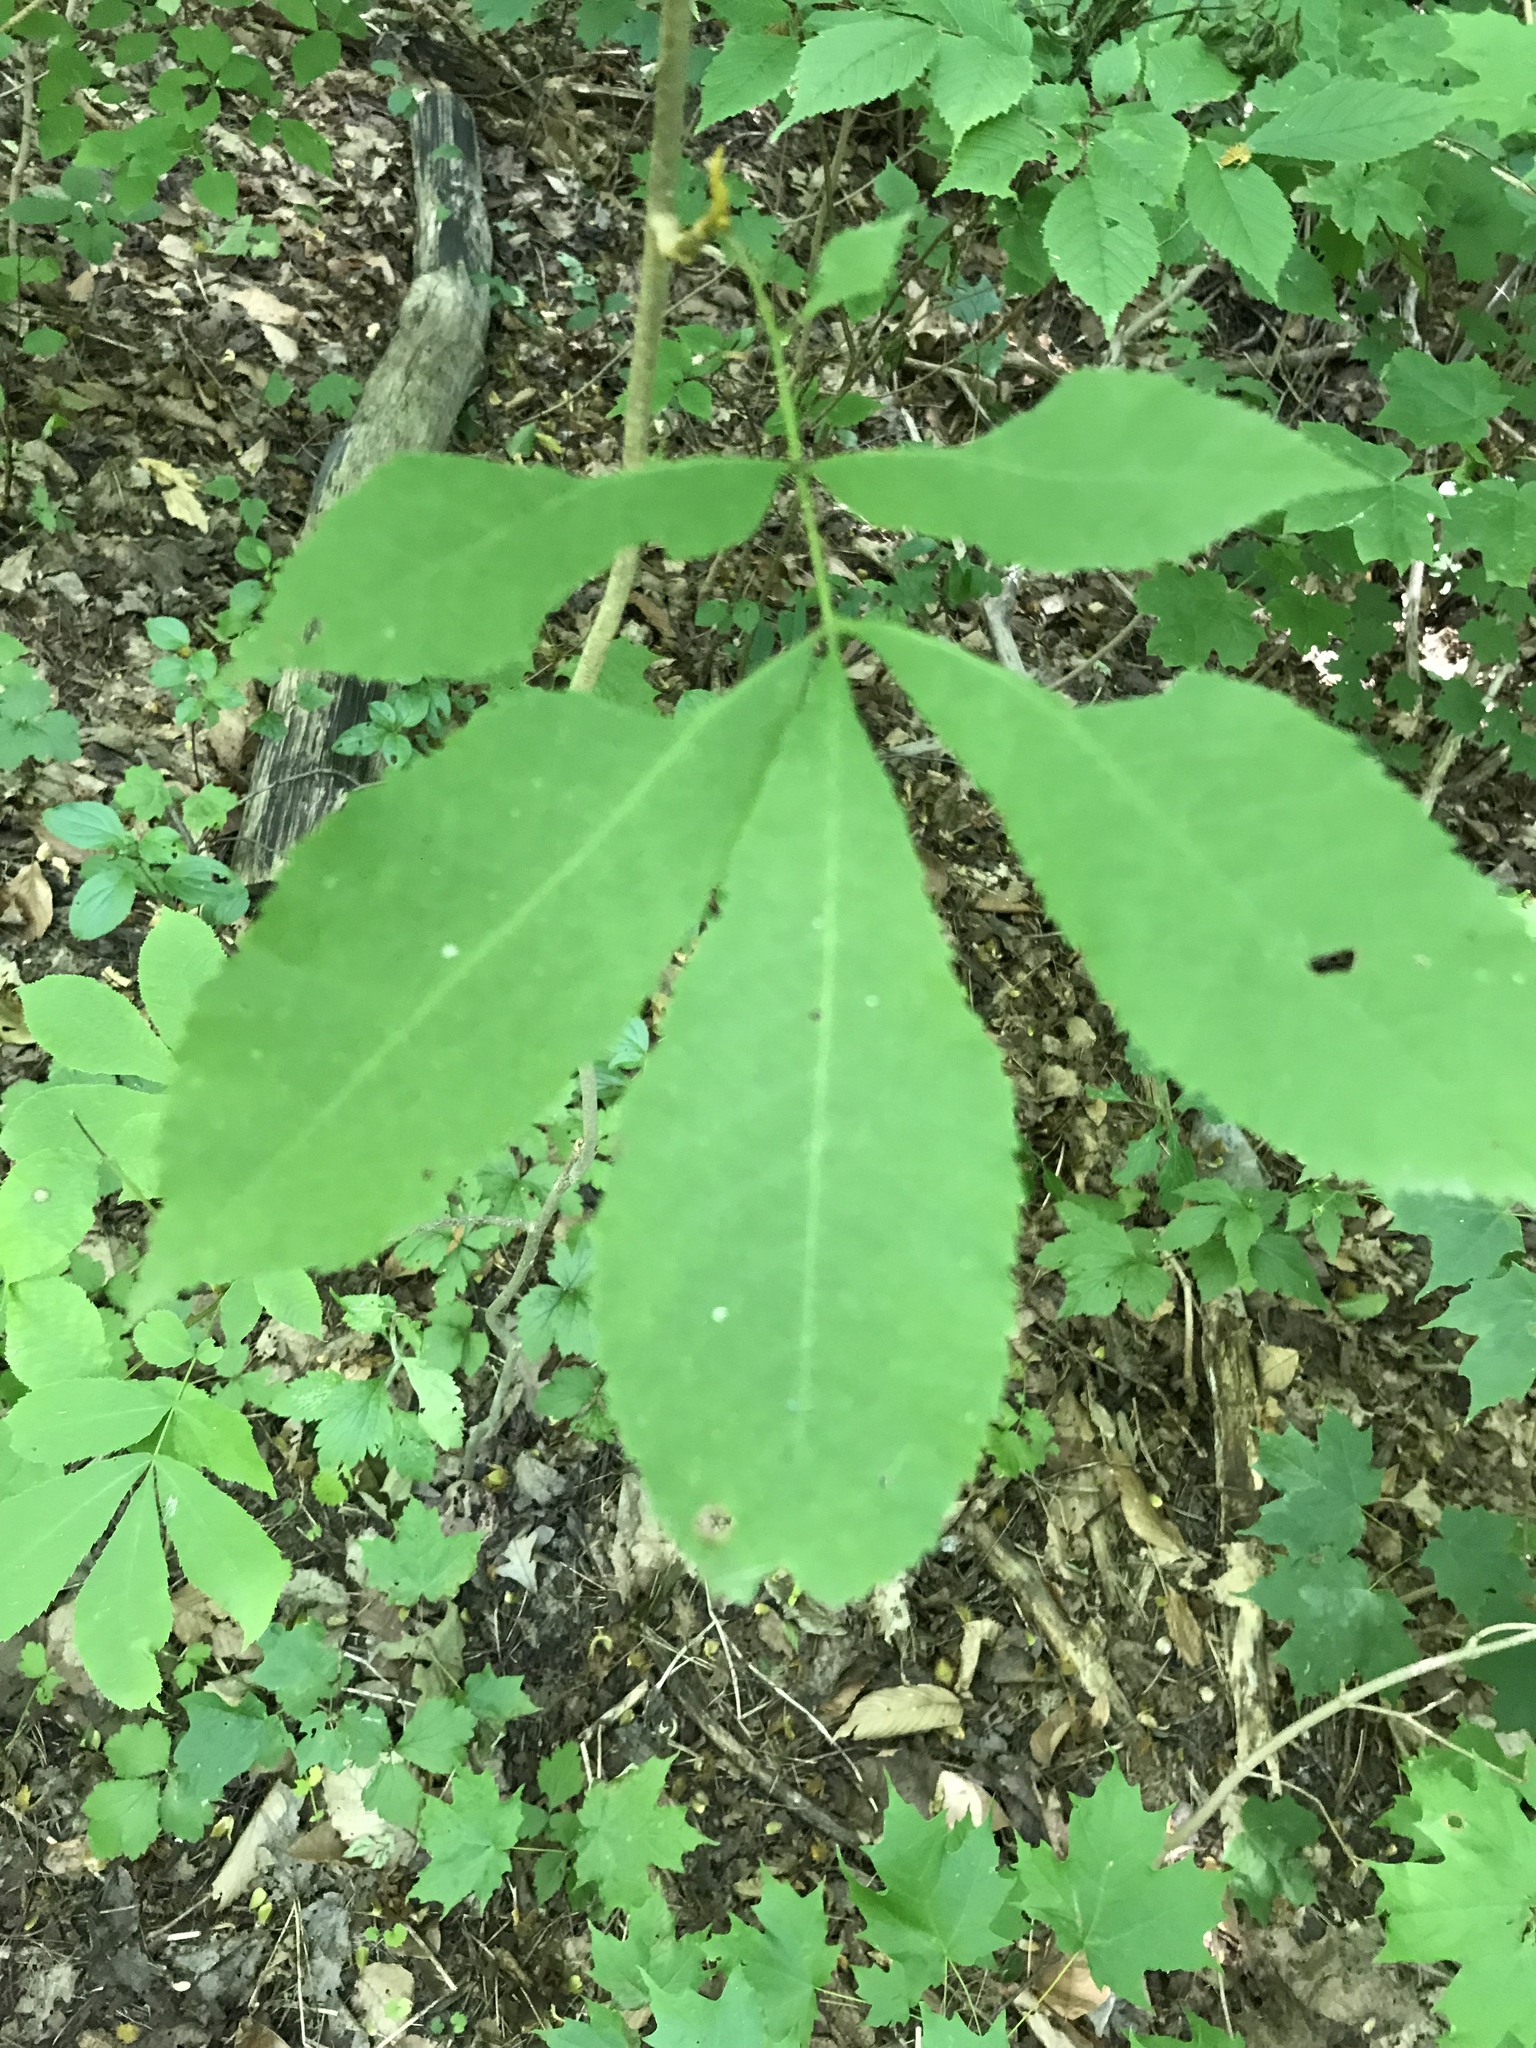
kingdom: Plantae
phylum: Tracheophyta
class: Magnoliopsida
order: Fagales
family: Juglandaceae
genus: Carya
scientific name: Carya cordiformis
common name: Bitternut hickory
